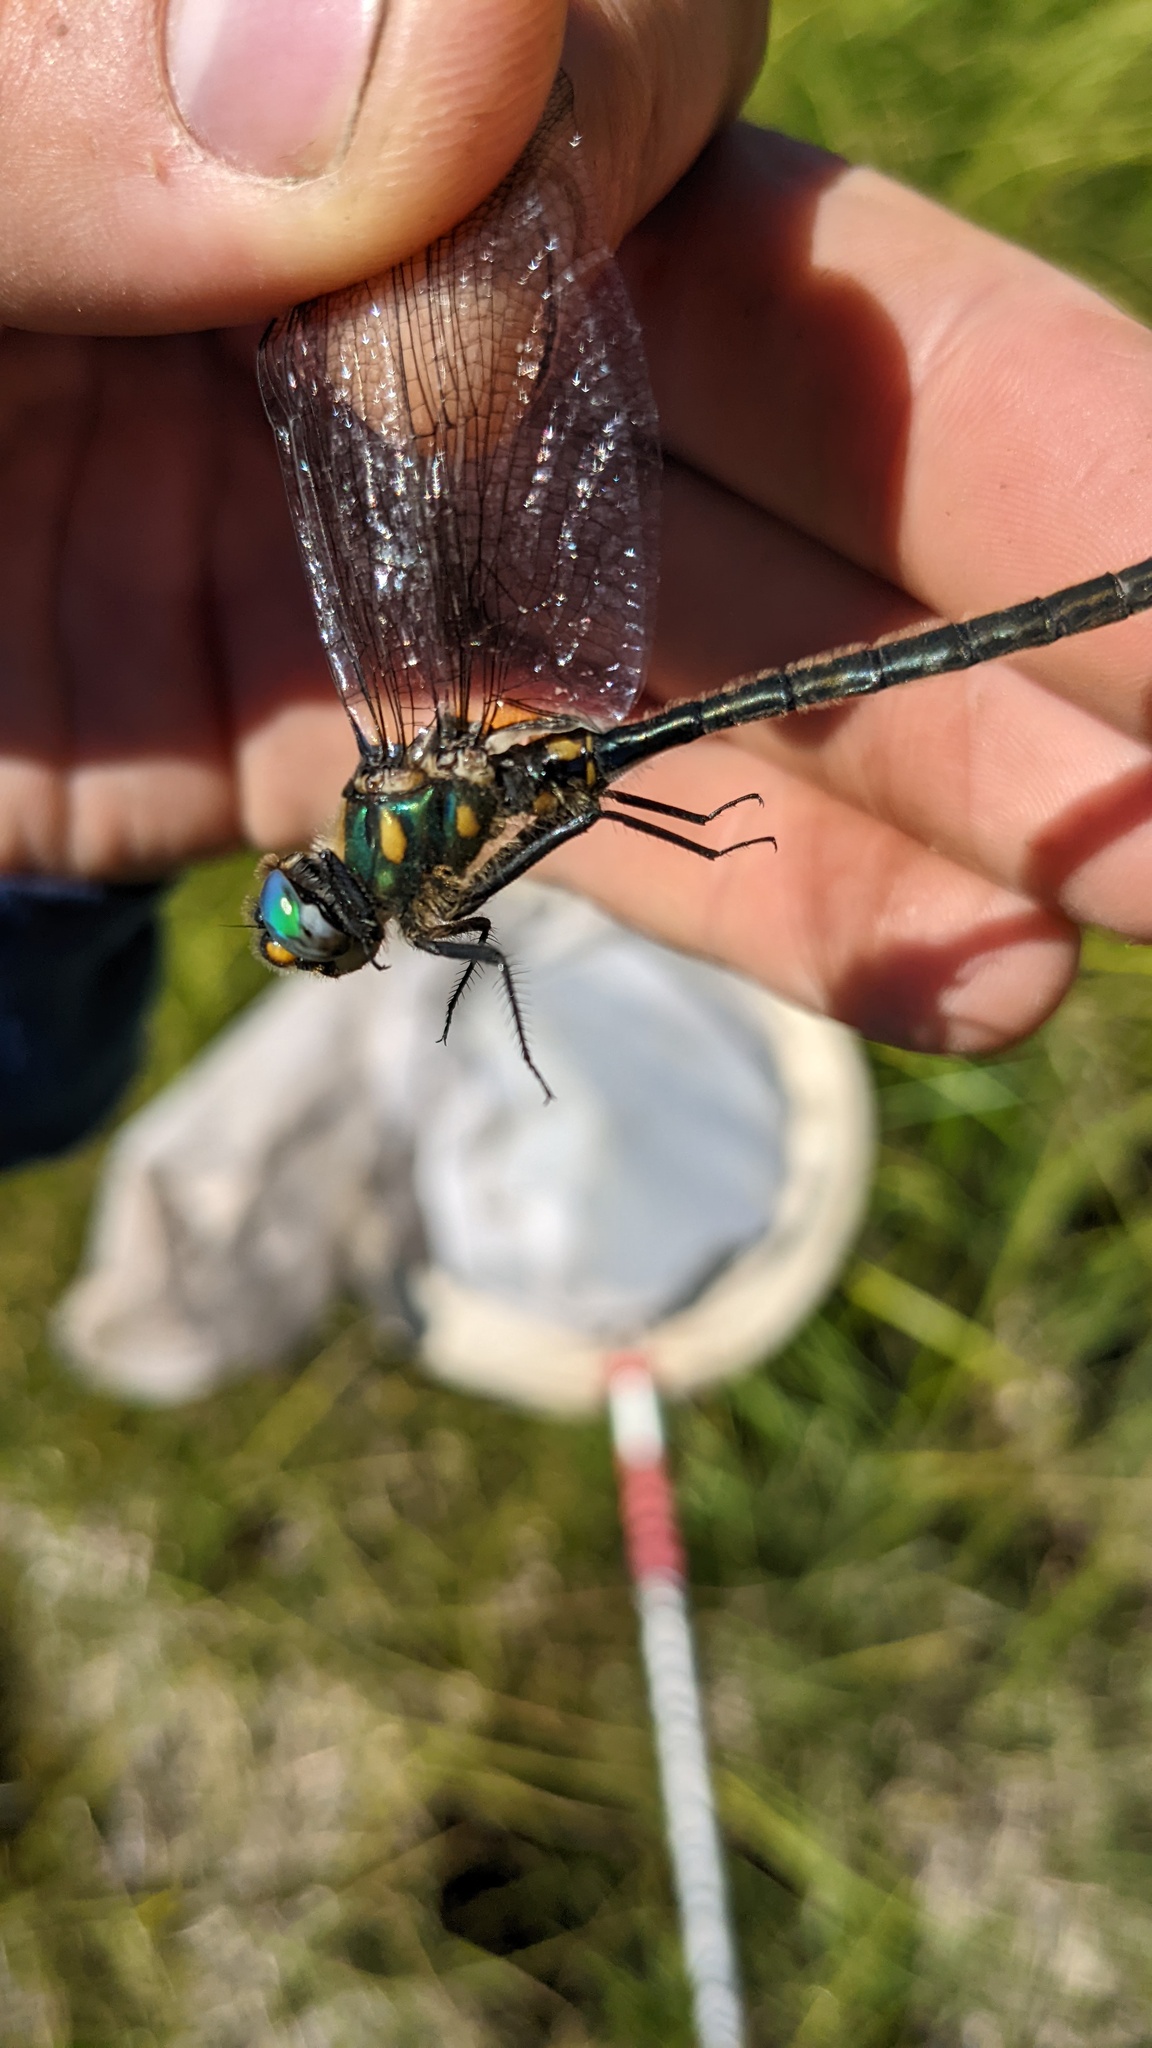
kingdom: Animalia
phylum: Arthropoda
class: Insecta
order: Odonata
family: Corduliidae
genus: Somatochlora
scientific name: Somatochlora semicircularis
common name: Mountain emerald
